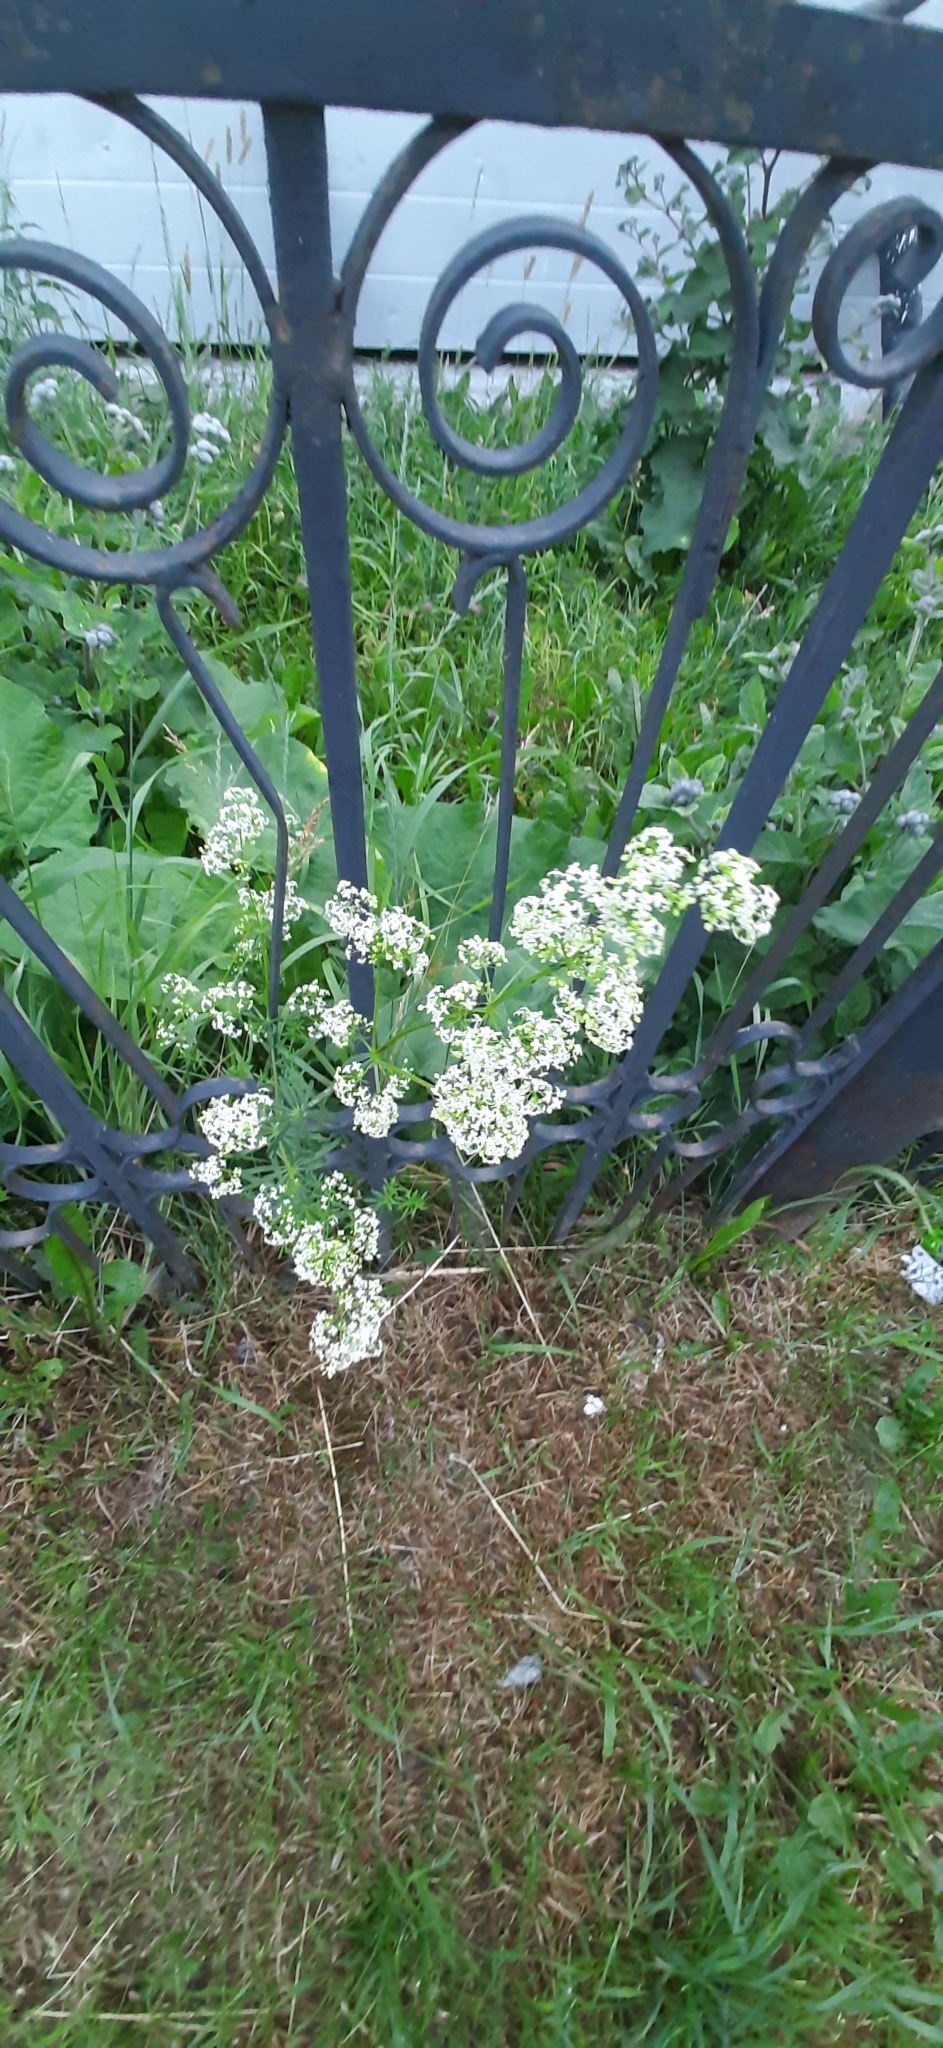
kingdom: Plantae
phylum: Tracheophyta
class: Magnoliopsida
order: Gentianales
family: Rubiaceae
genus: Galium
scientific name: Galium mollugo
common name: Hedge bedstraw
